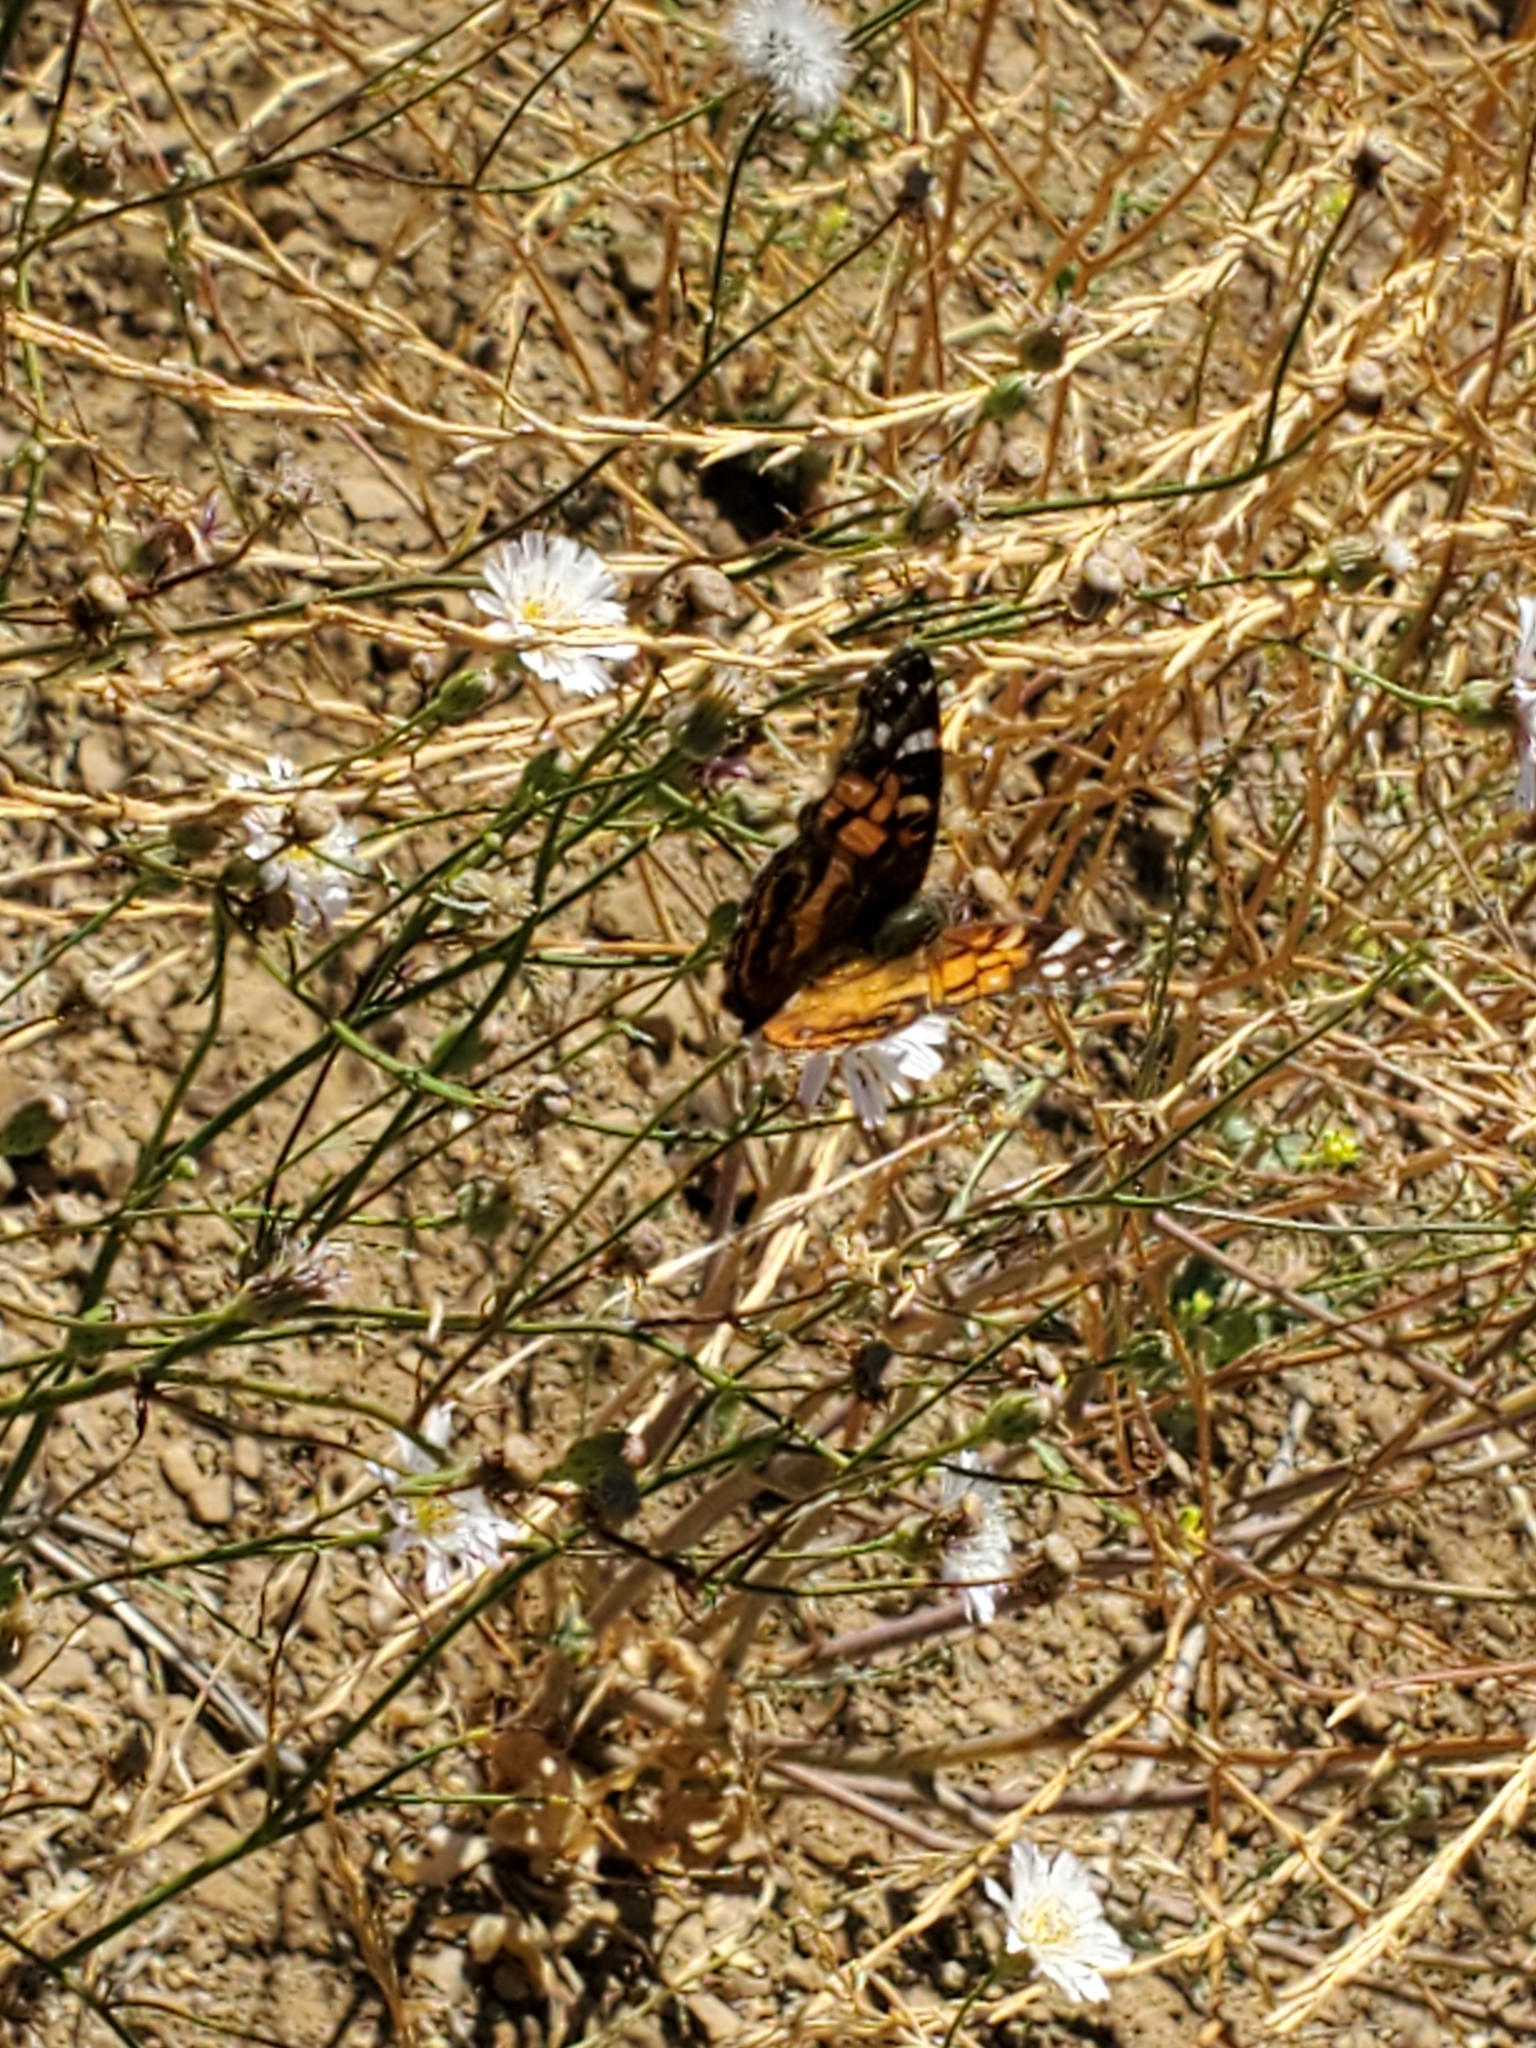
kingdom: Animalia
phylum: Arthropoda
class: Insecta
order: Lepidoptera
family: Nymphalidae
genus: Vanessa
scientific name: Vanessa virginiensis
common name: American lady
